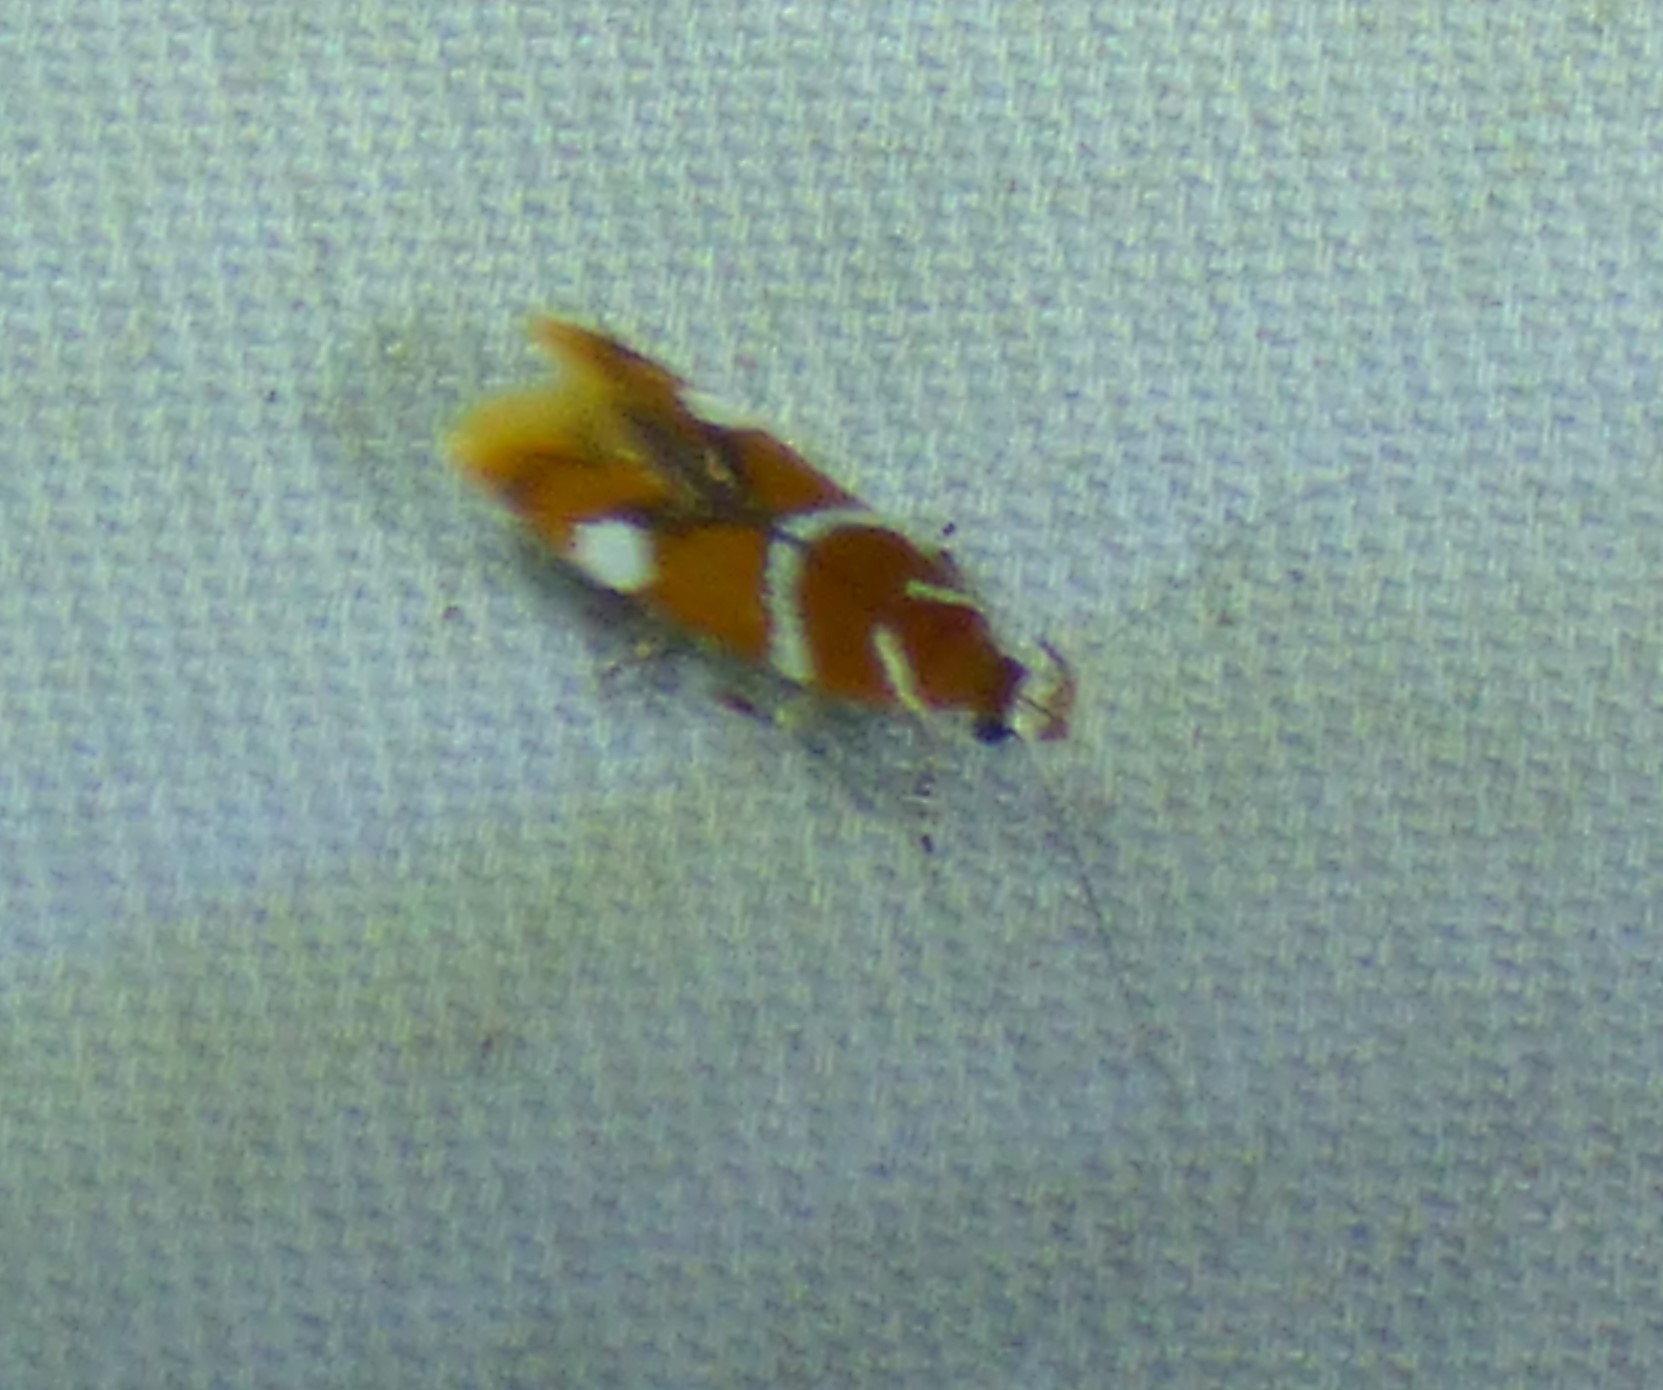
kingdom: Animalia
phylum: Arthropoda
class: Insecta
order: Lepidoptera
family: Oecophoridae
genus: Promalactis
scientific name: Promalactis suzukiella
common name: Moth
